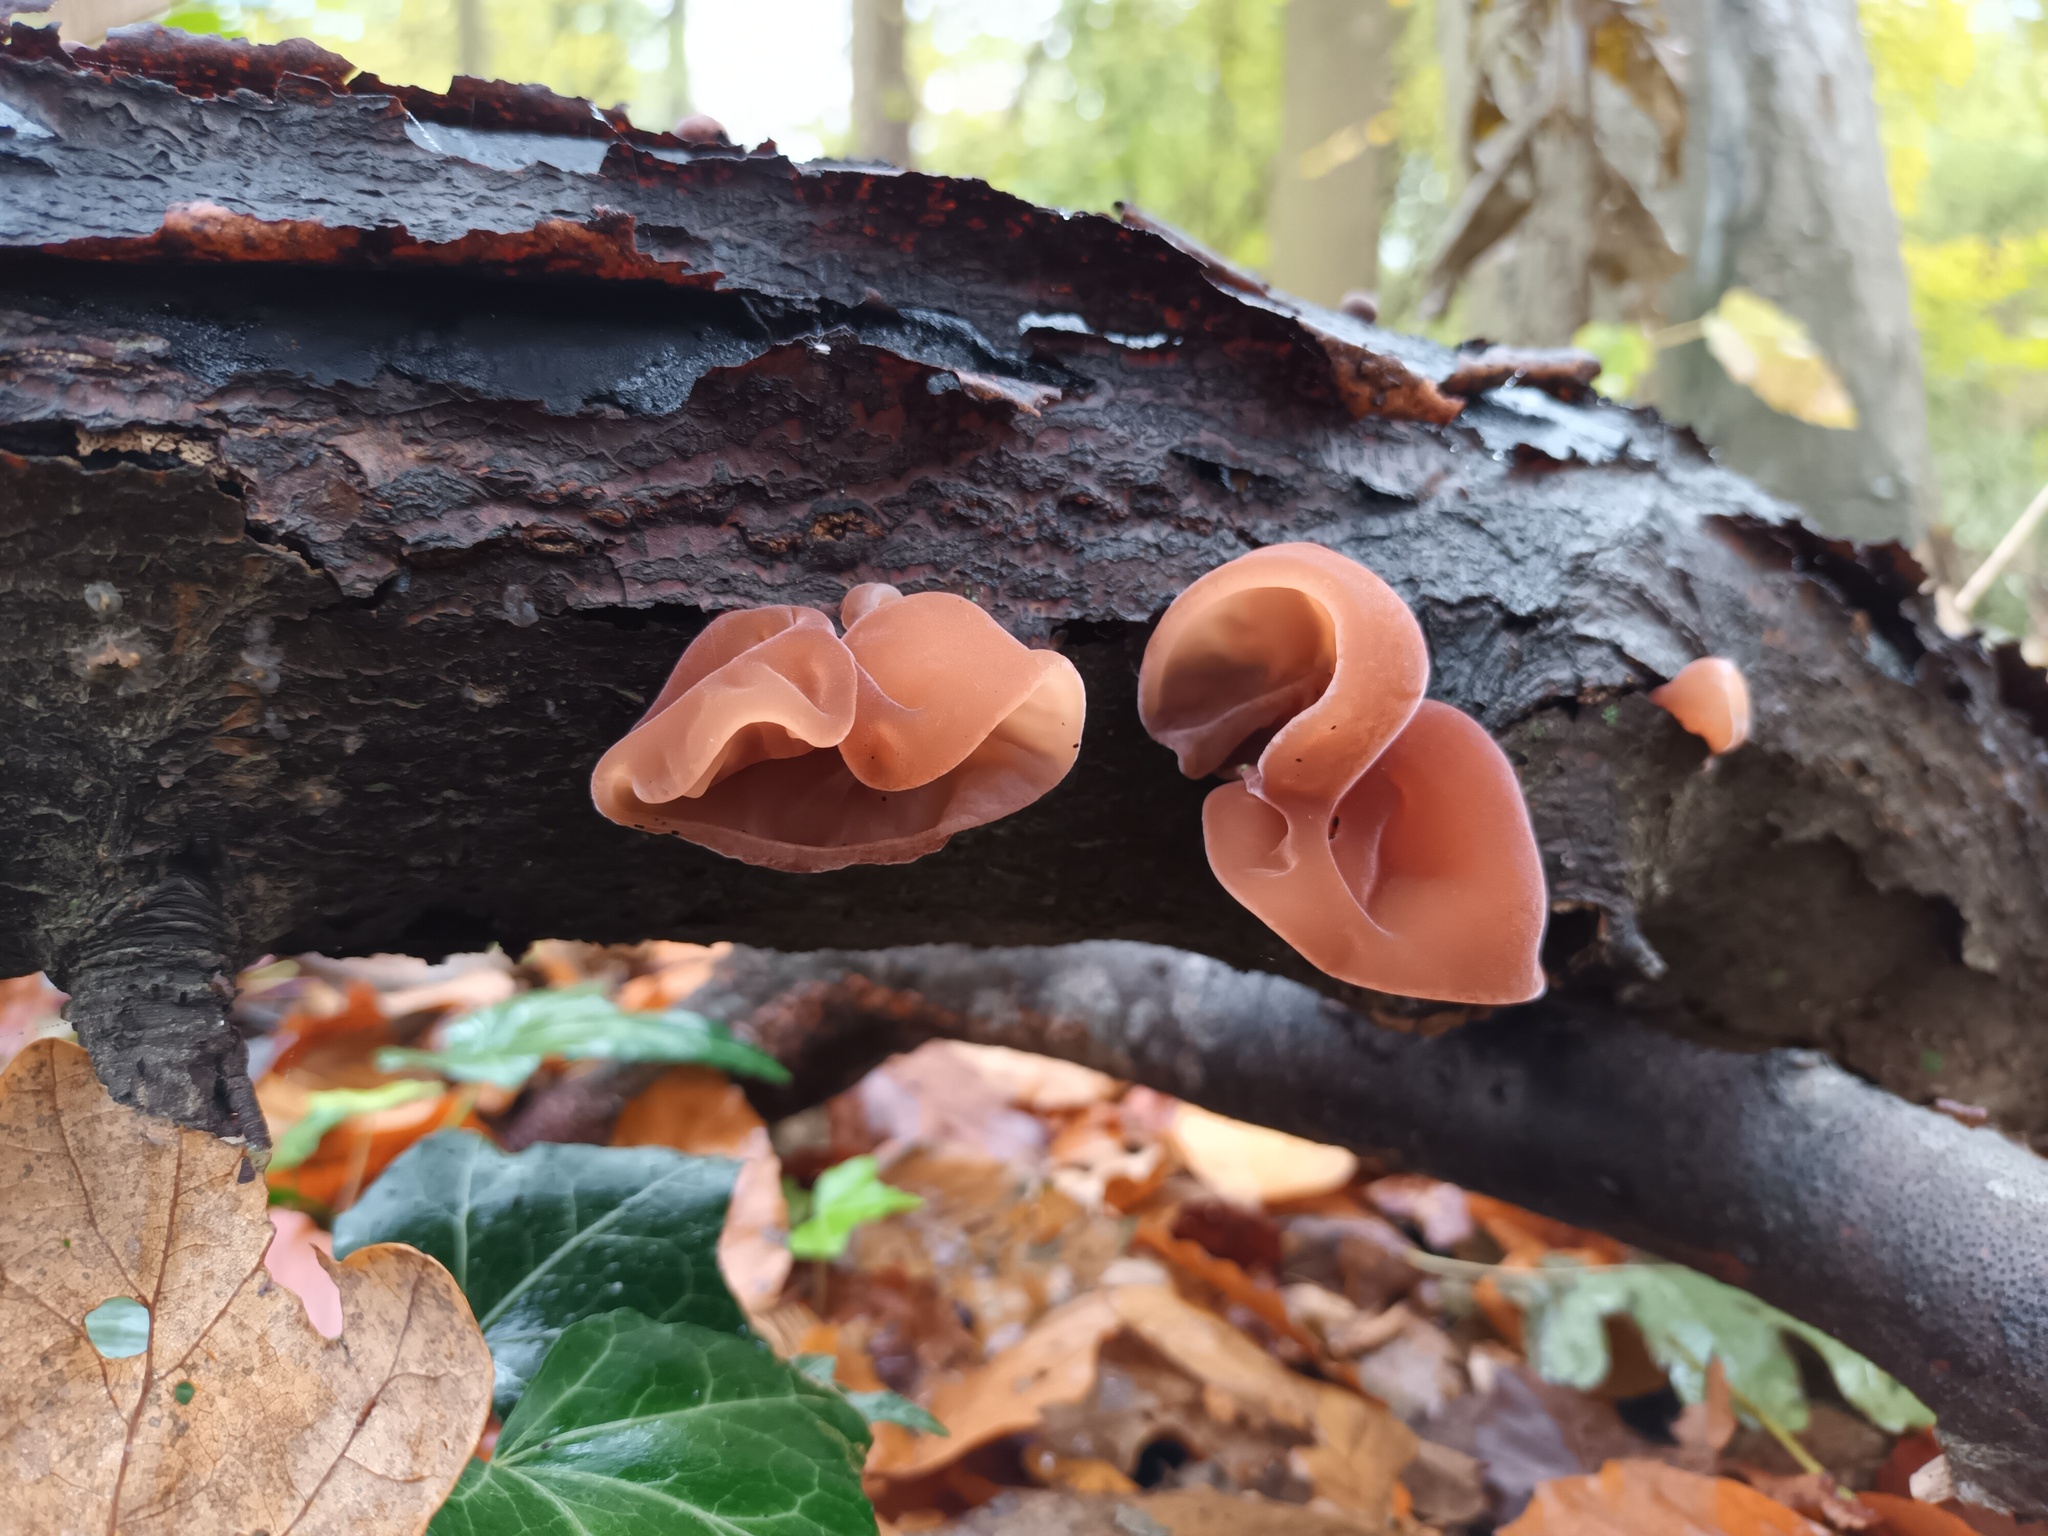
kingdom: Fungi
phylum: Basidiomycota
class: Agaricomycetes
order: Auriculariales
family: Auriculariaceae
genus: Auricularia
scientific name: Auricularia auricula-judae
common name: Jelly ear
